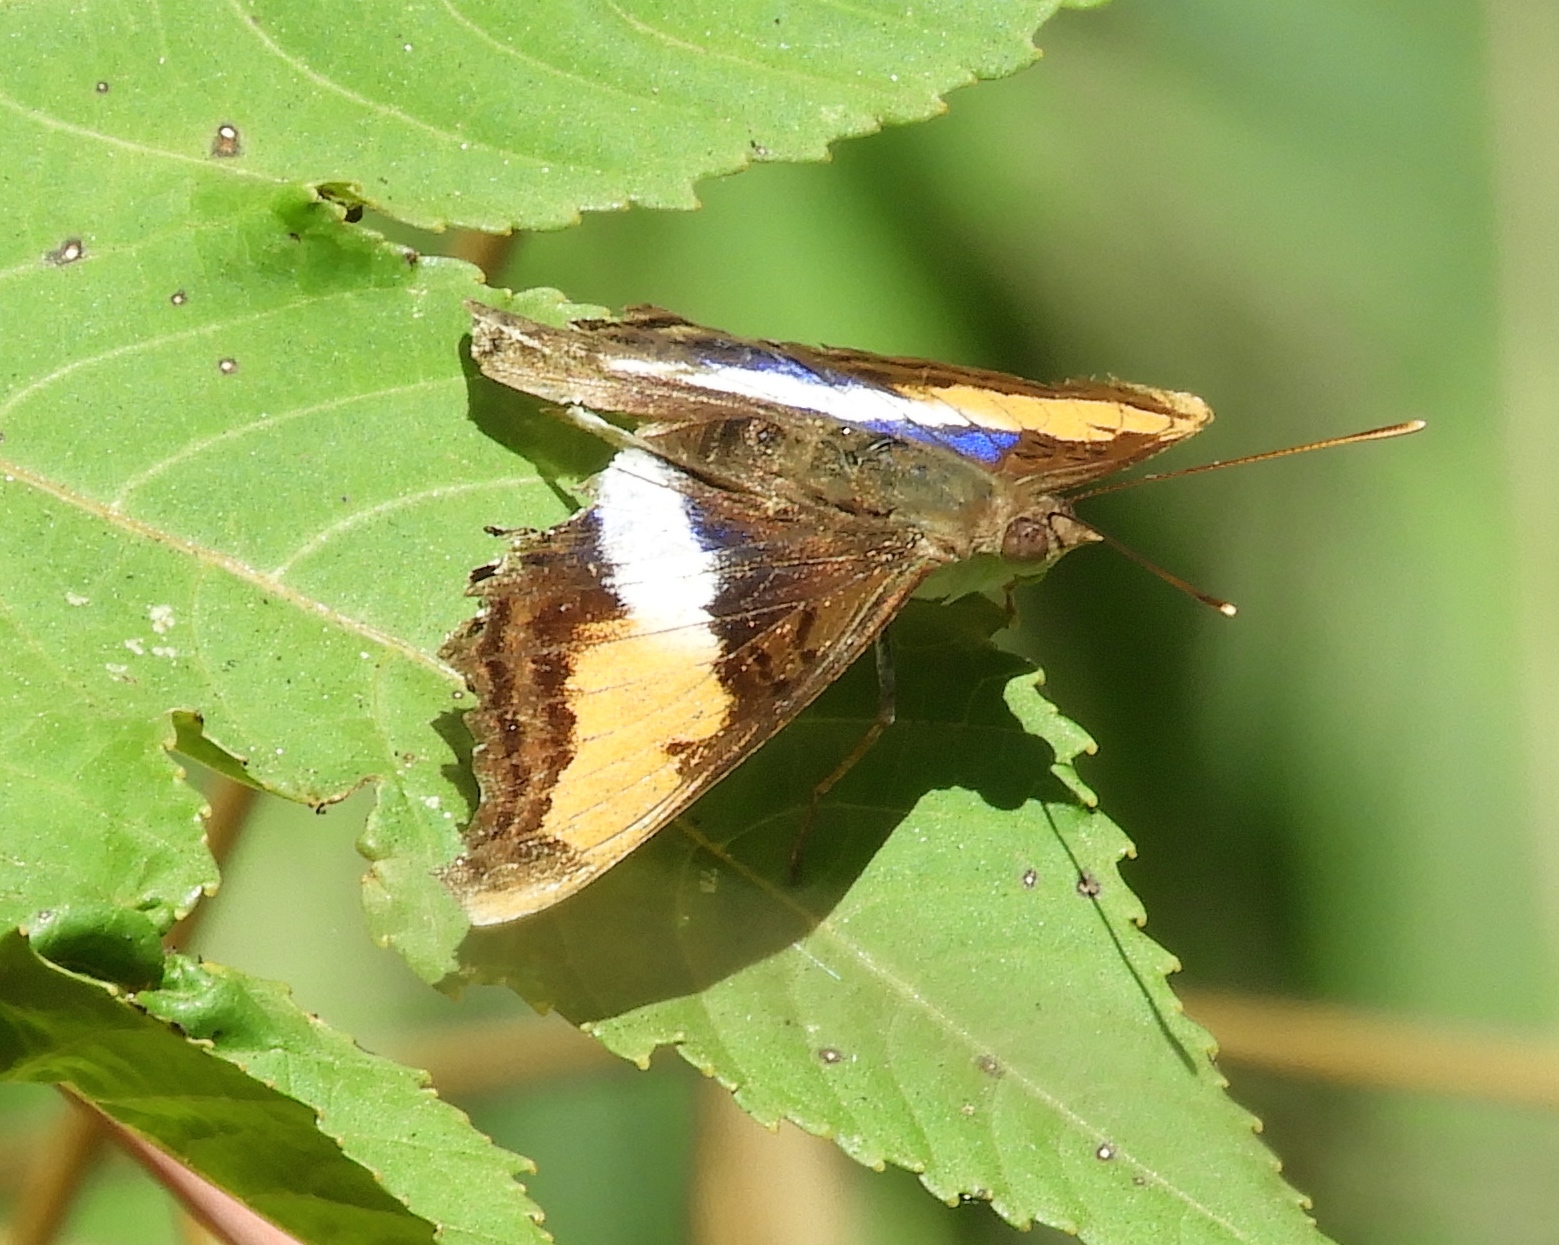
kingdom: Animalia
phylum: Arthropoda
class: Insecta
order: Lepidoptera
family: Nymphalidae
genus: Doxocopa
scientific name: Doxocopa laure
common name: Silver emperor
